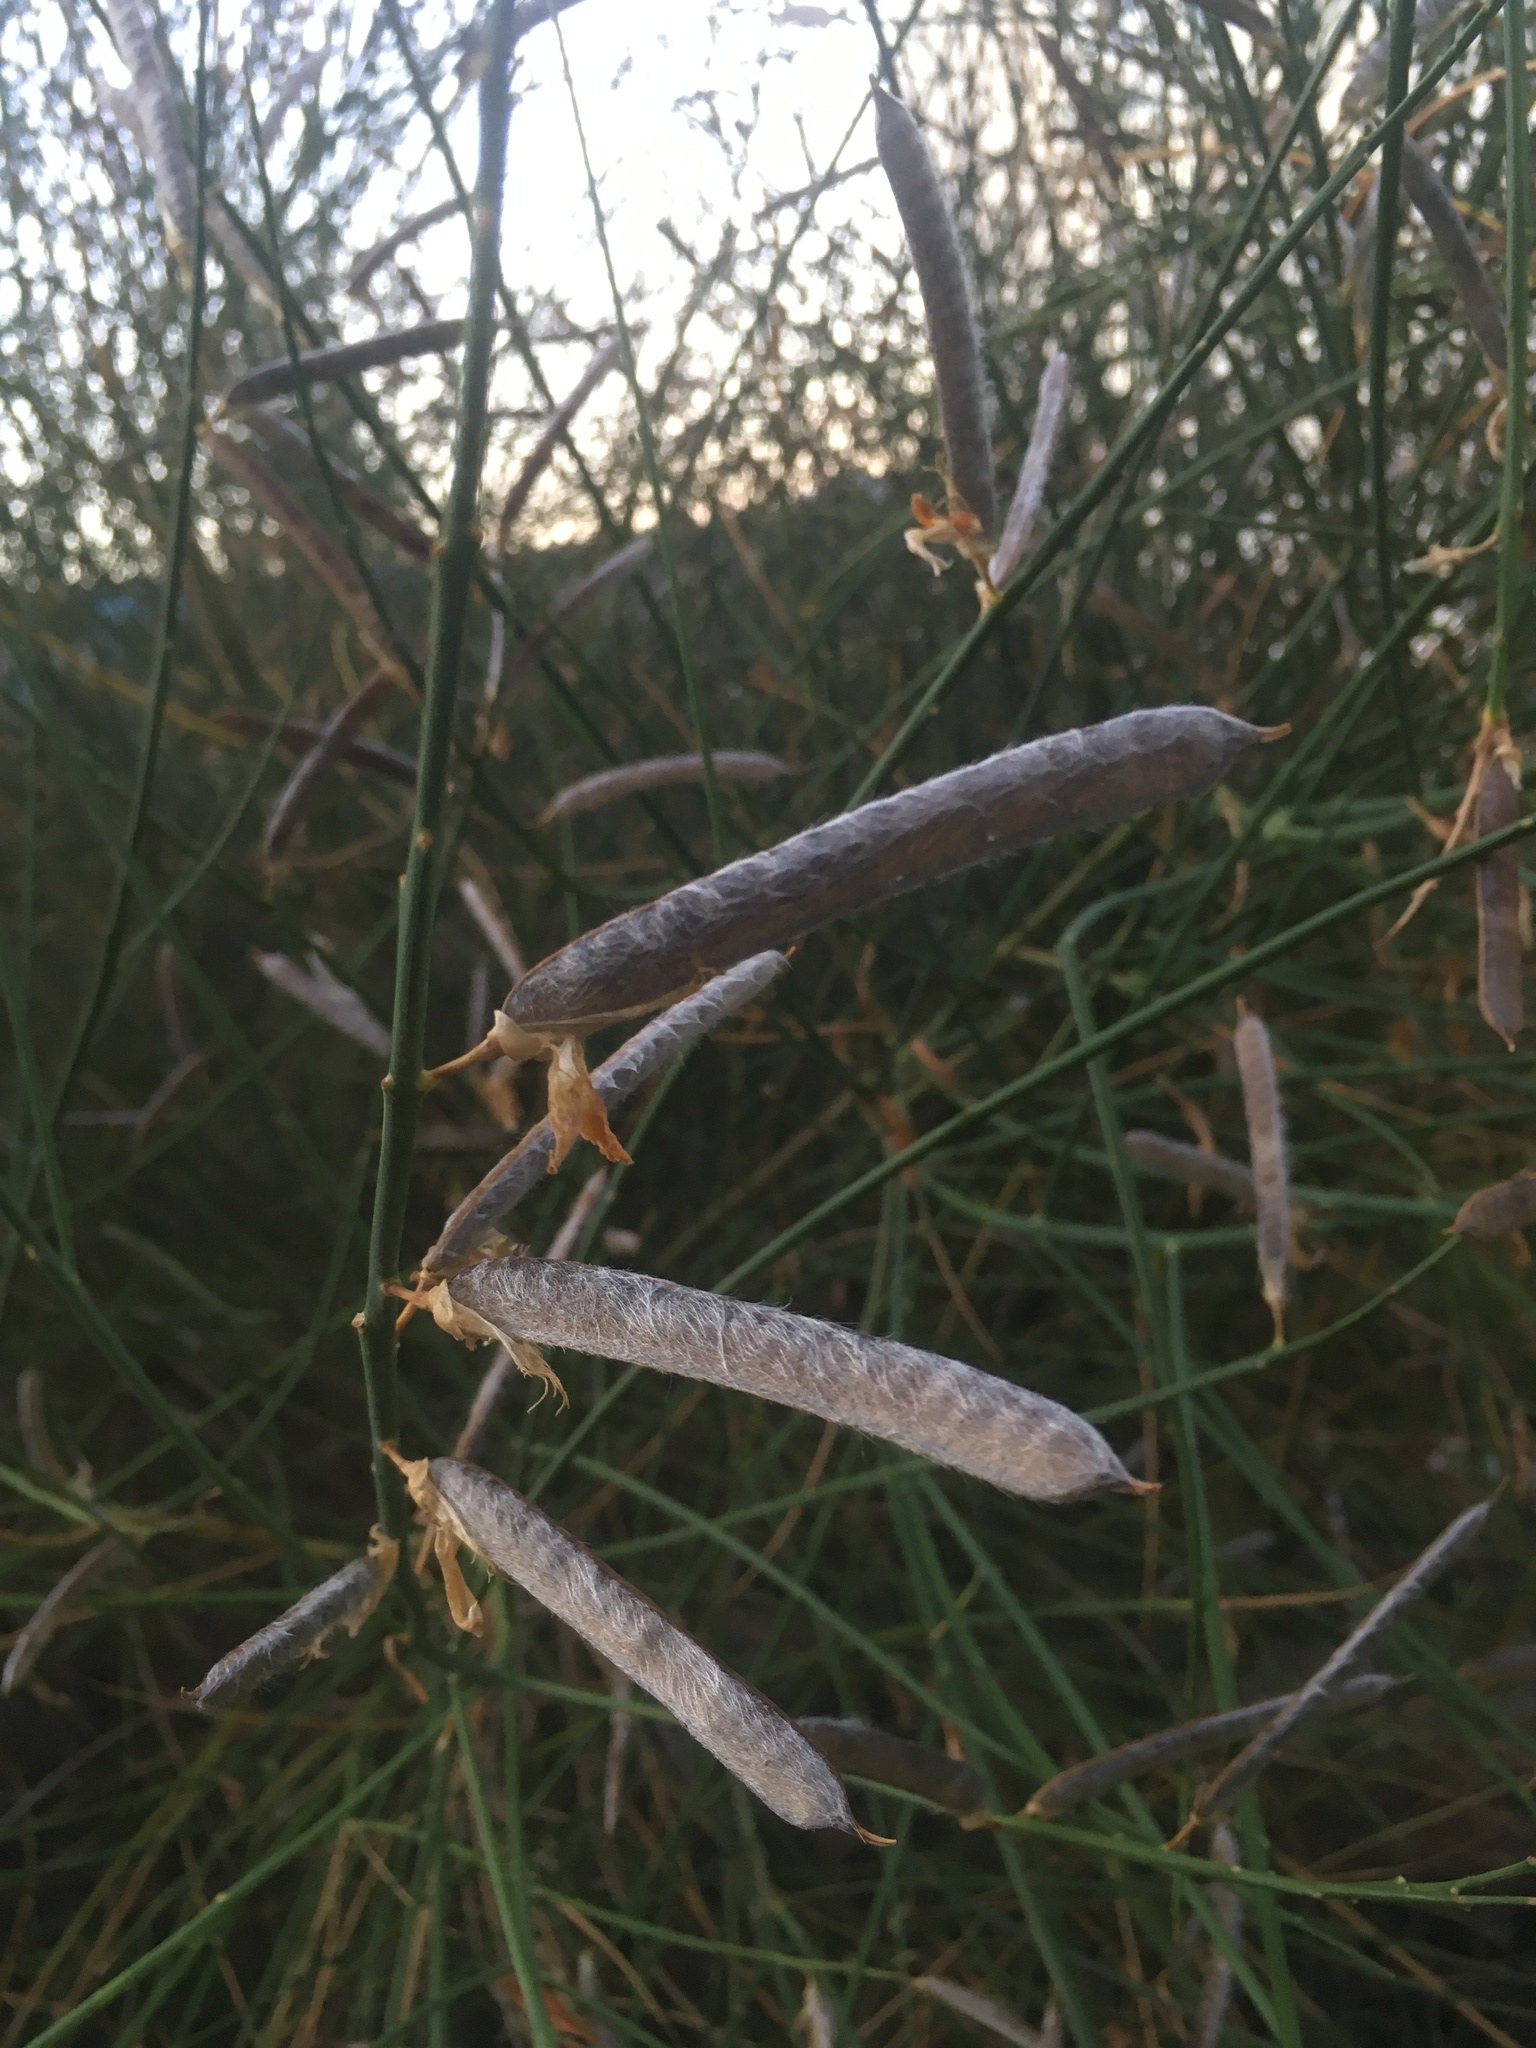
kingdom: Plantae
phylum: Tracheophyta
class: Magnoliopsida
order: Fabales
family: Fabaceae
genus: Spartium
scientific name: Spartium junceum
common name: Spanish broom
